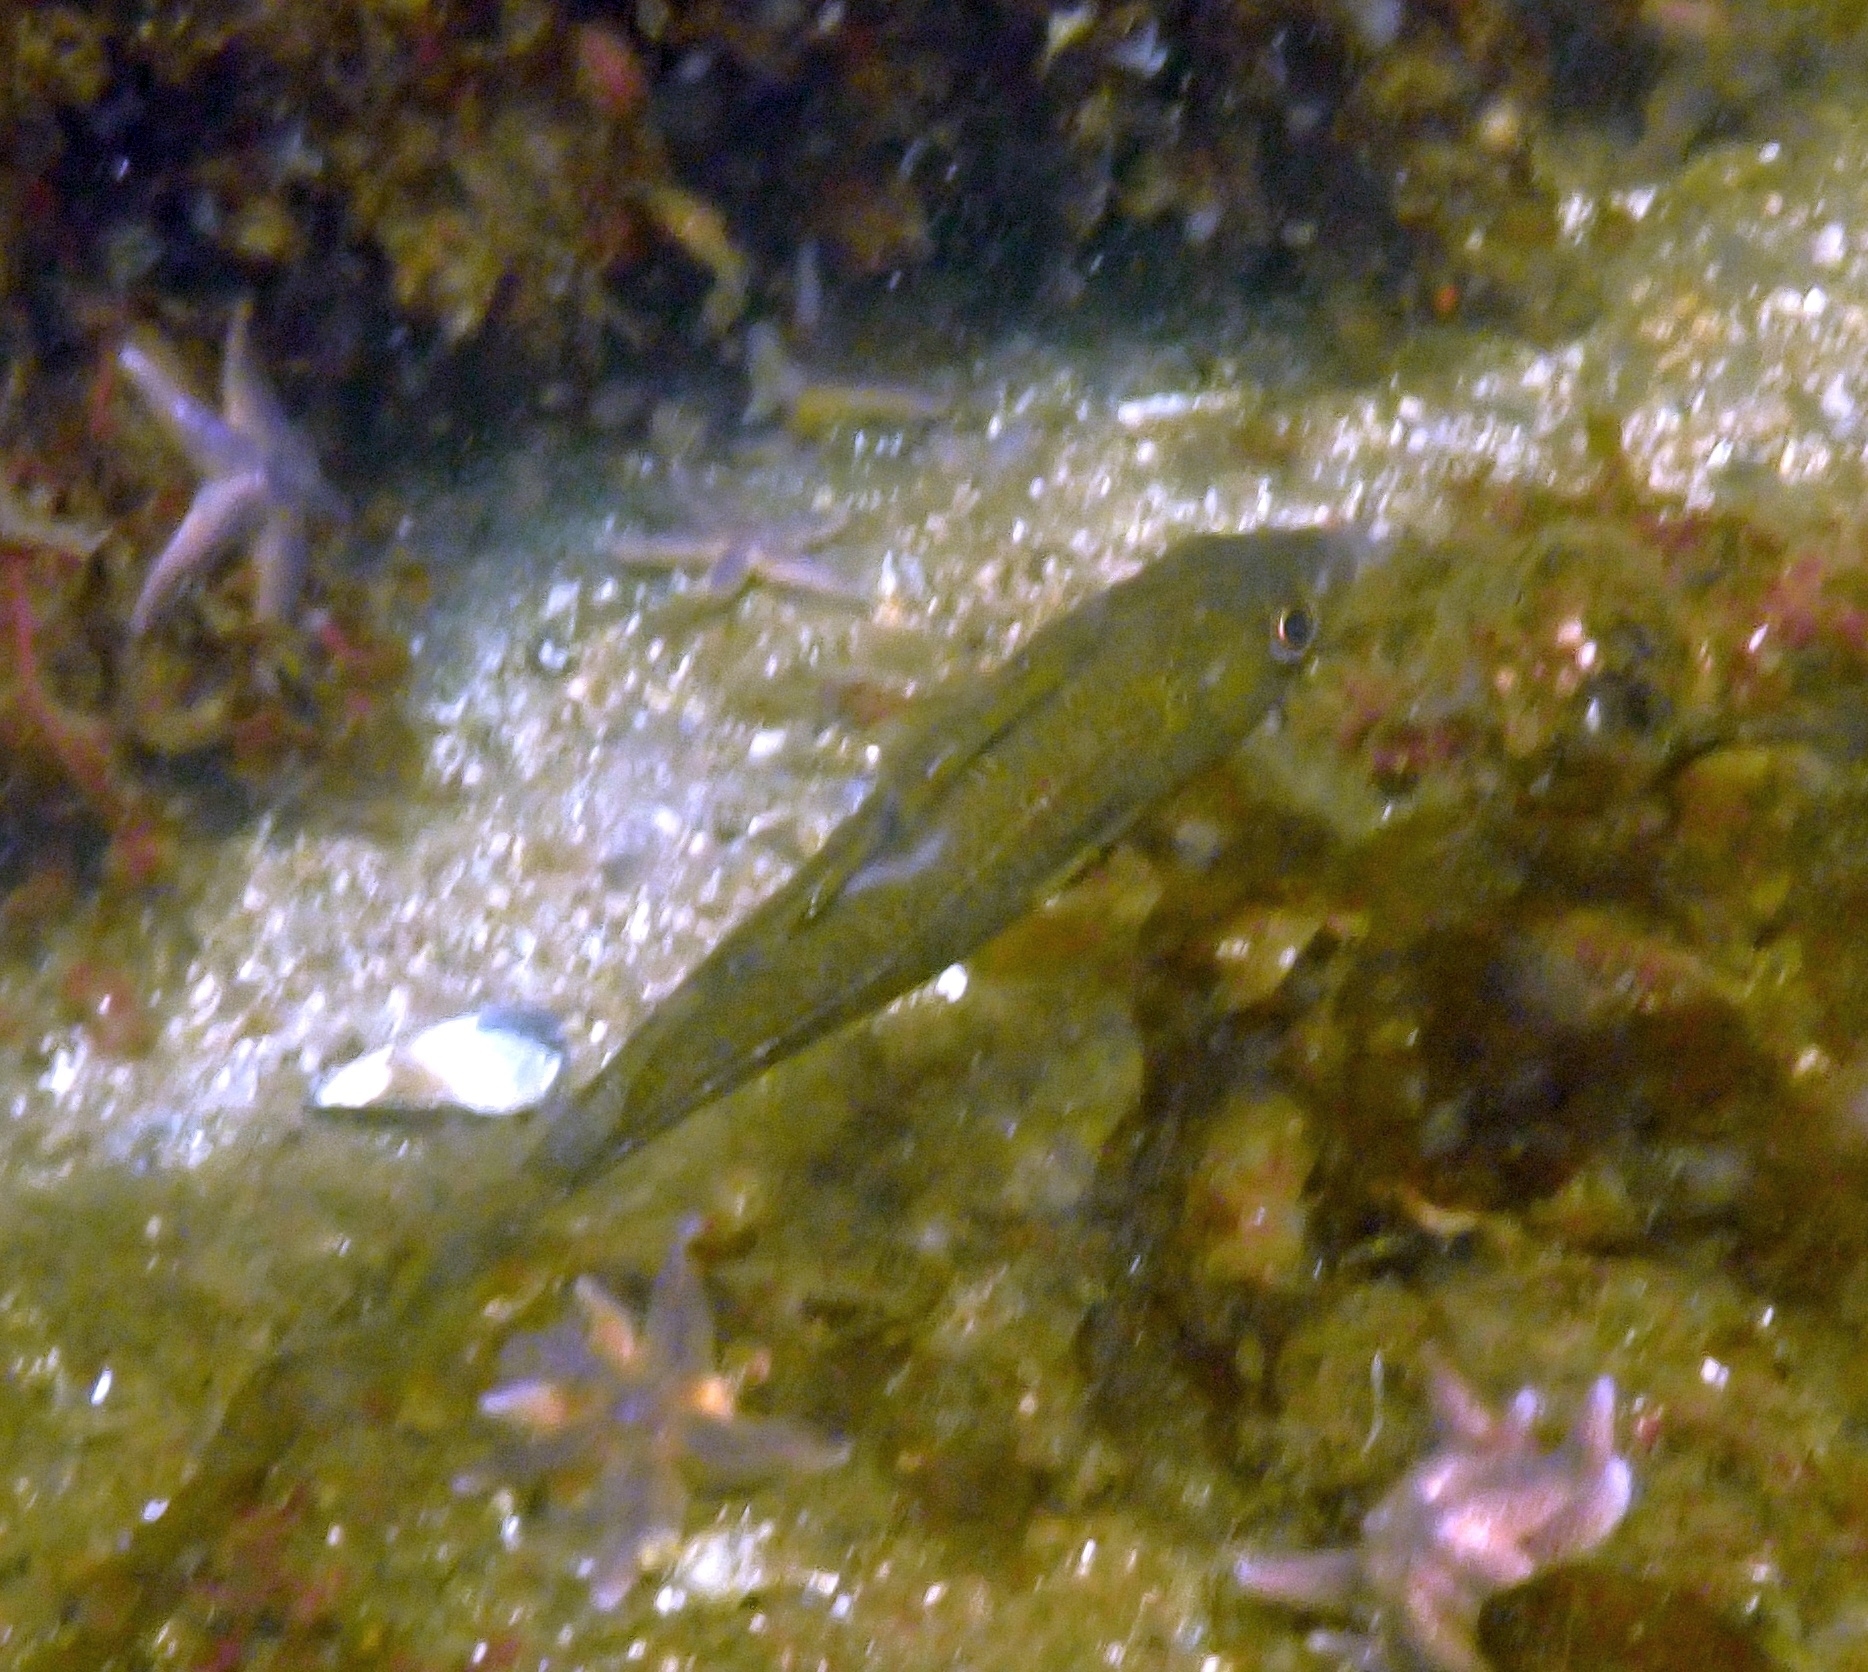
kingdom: Animalia
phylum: Chordata
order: Gadiformes
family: Gadidae
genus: Gadus
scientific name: Gadus morhua
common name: Atlantic cod
